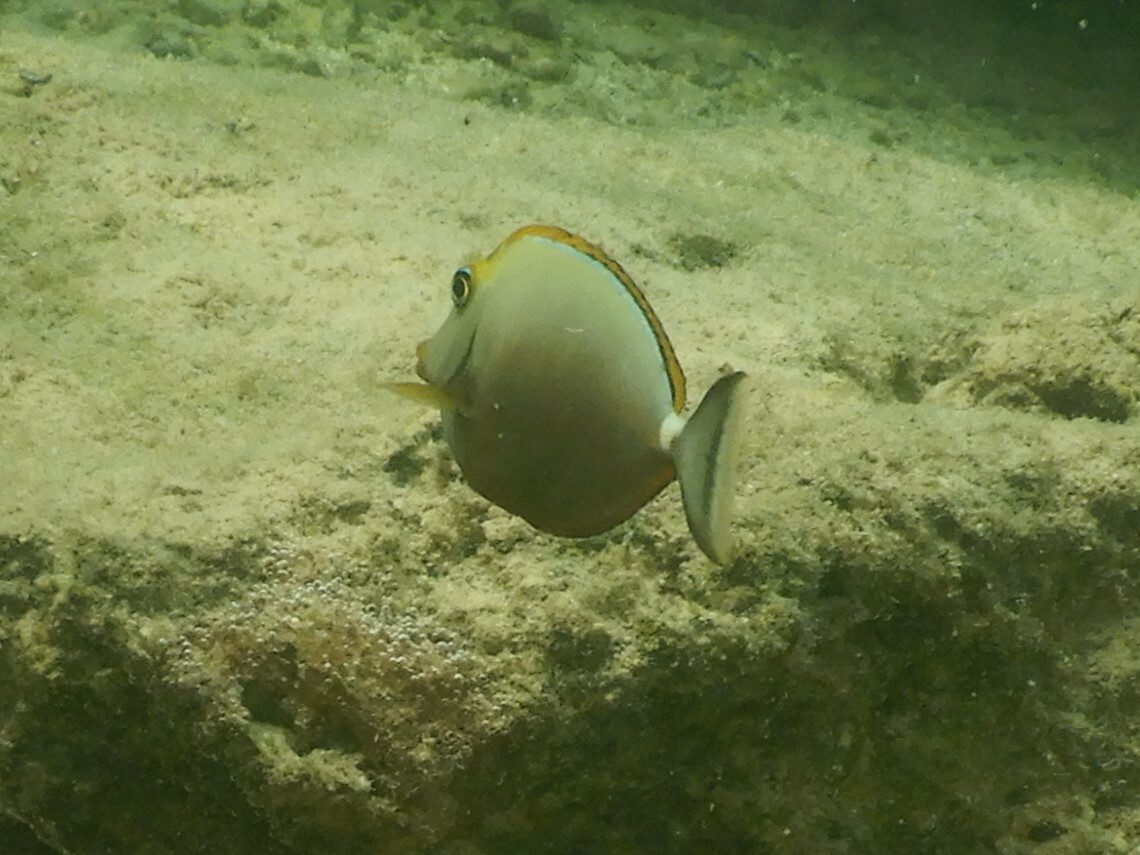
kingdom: Animalia
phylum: Chordata
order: Perciformes
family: Acanthuridae
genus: Naso
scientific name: Naso elegans
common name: Orangespine unicornfish
